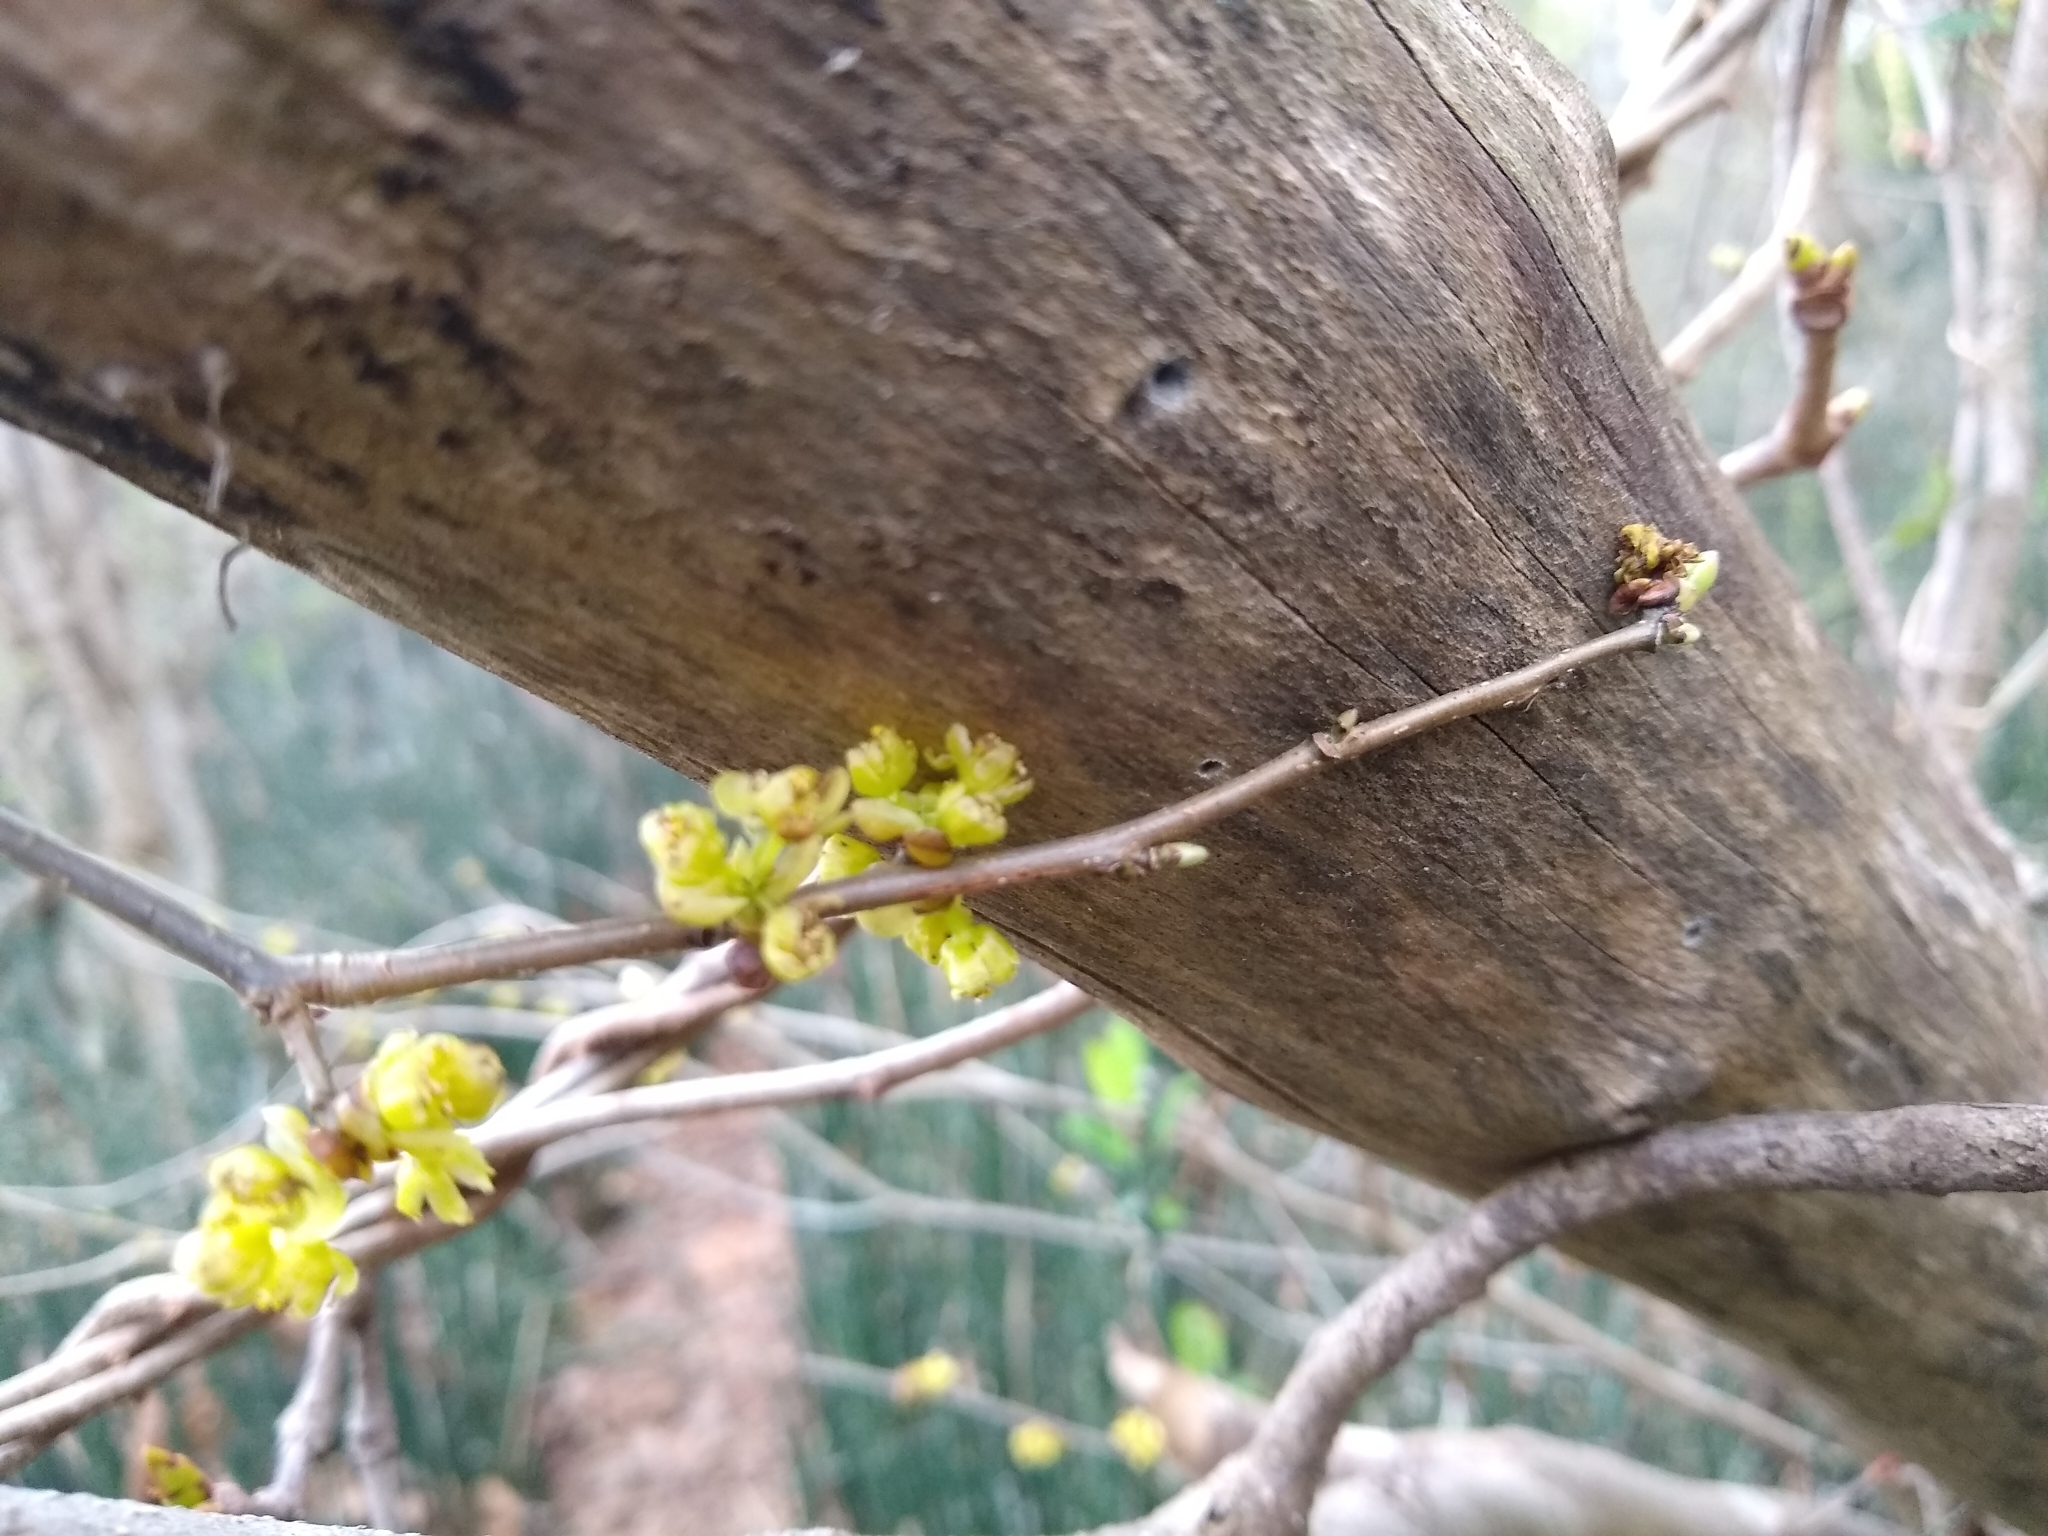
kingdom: Plantae
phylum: Tracheophyta
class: Magnoliopsida
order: Laurales
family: Lauraceae
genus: Lindera
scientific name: Lindera benzoin
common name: Spicebush
